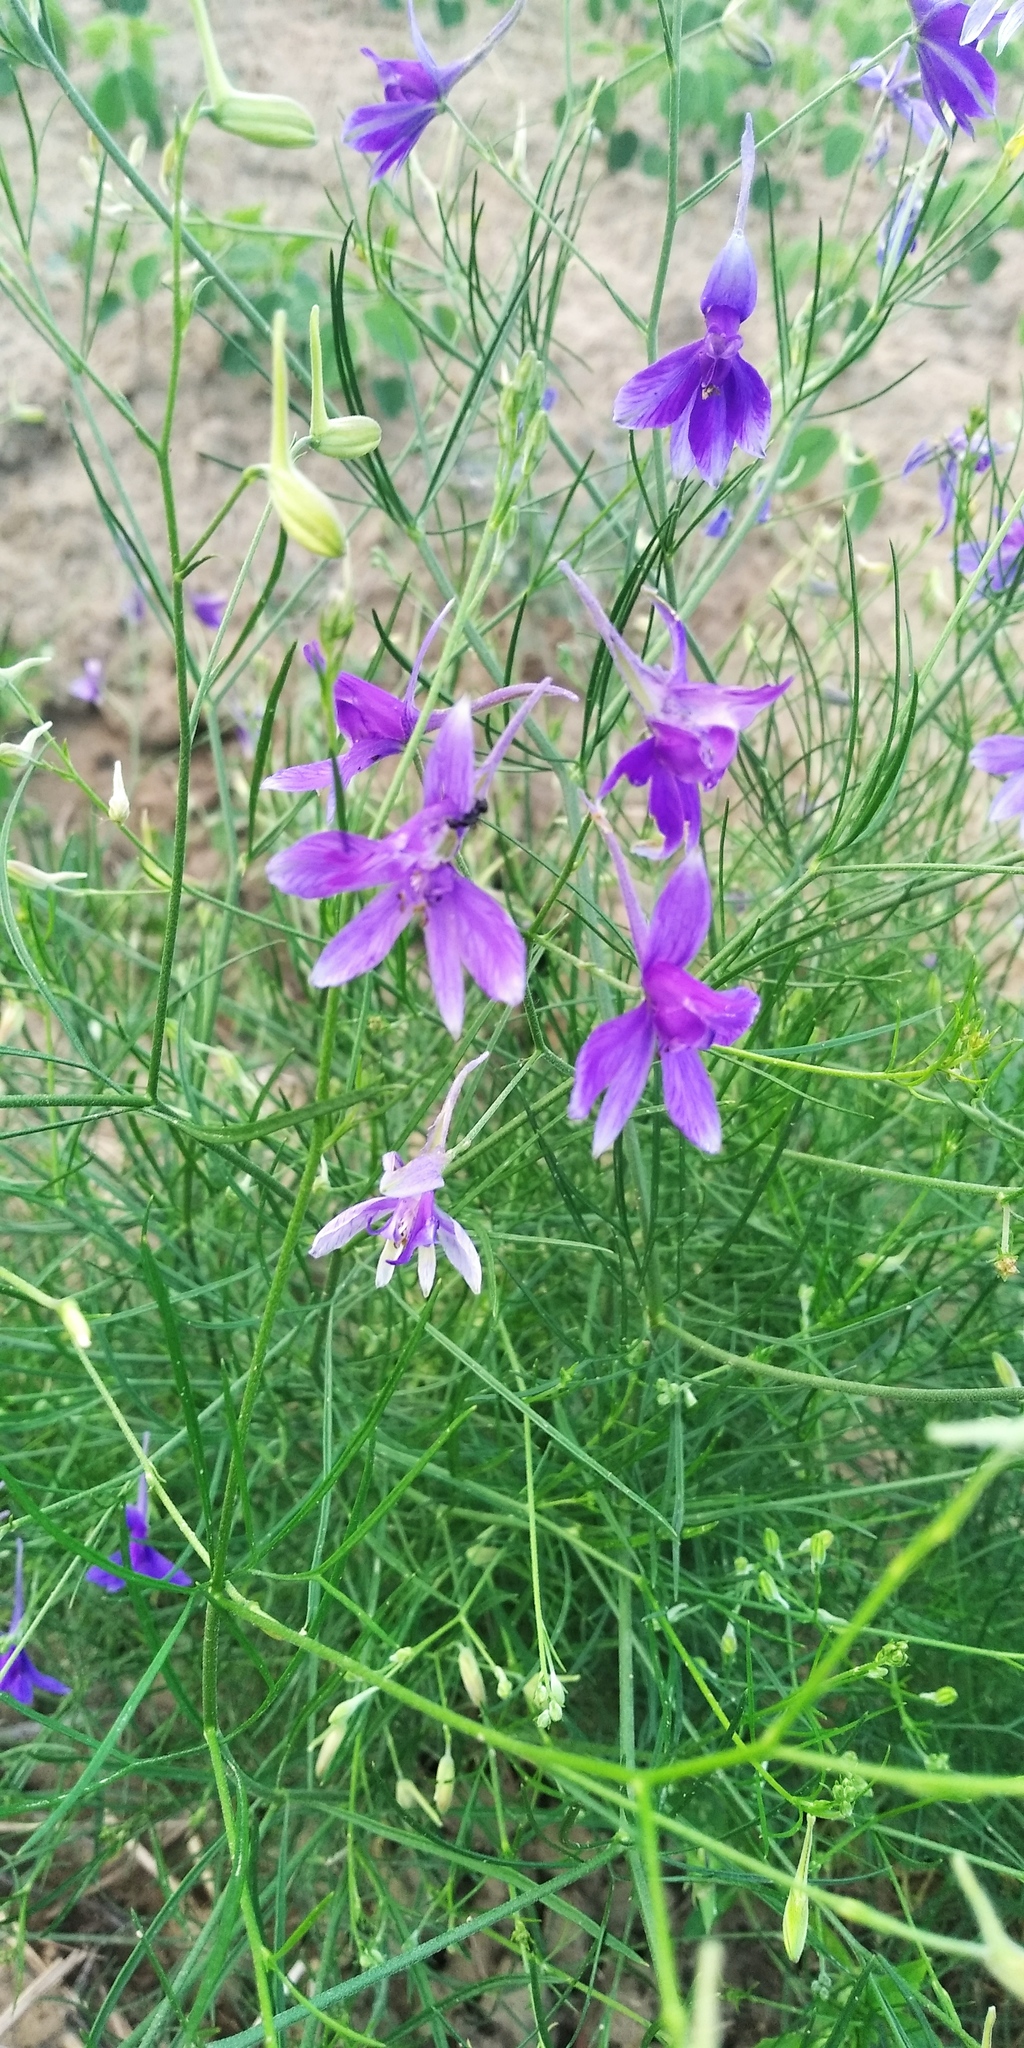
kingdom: Plantae
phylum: Tracheophyta
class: Magnoliopsida
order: Ranunculales
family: Ranunculaceae
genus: Delphinium
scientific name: Delphinium consolida
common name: Branching larkspur
